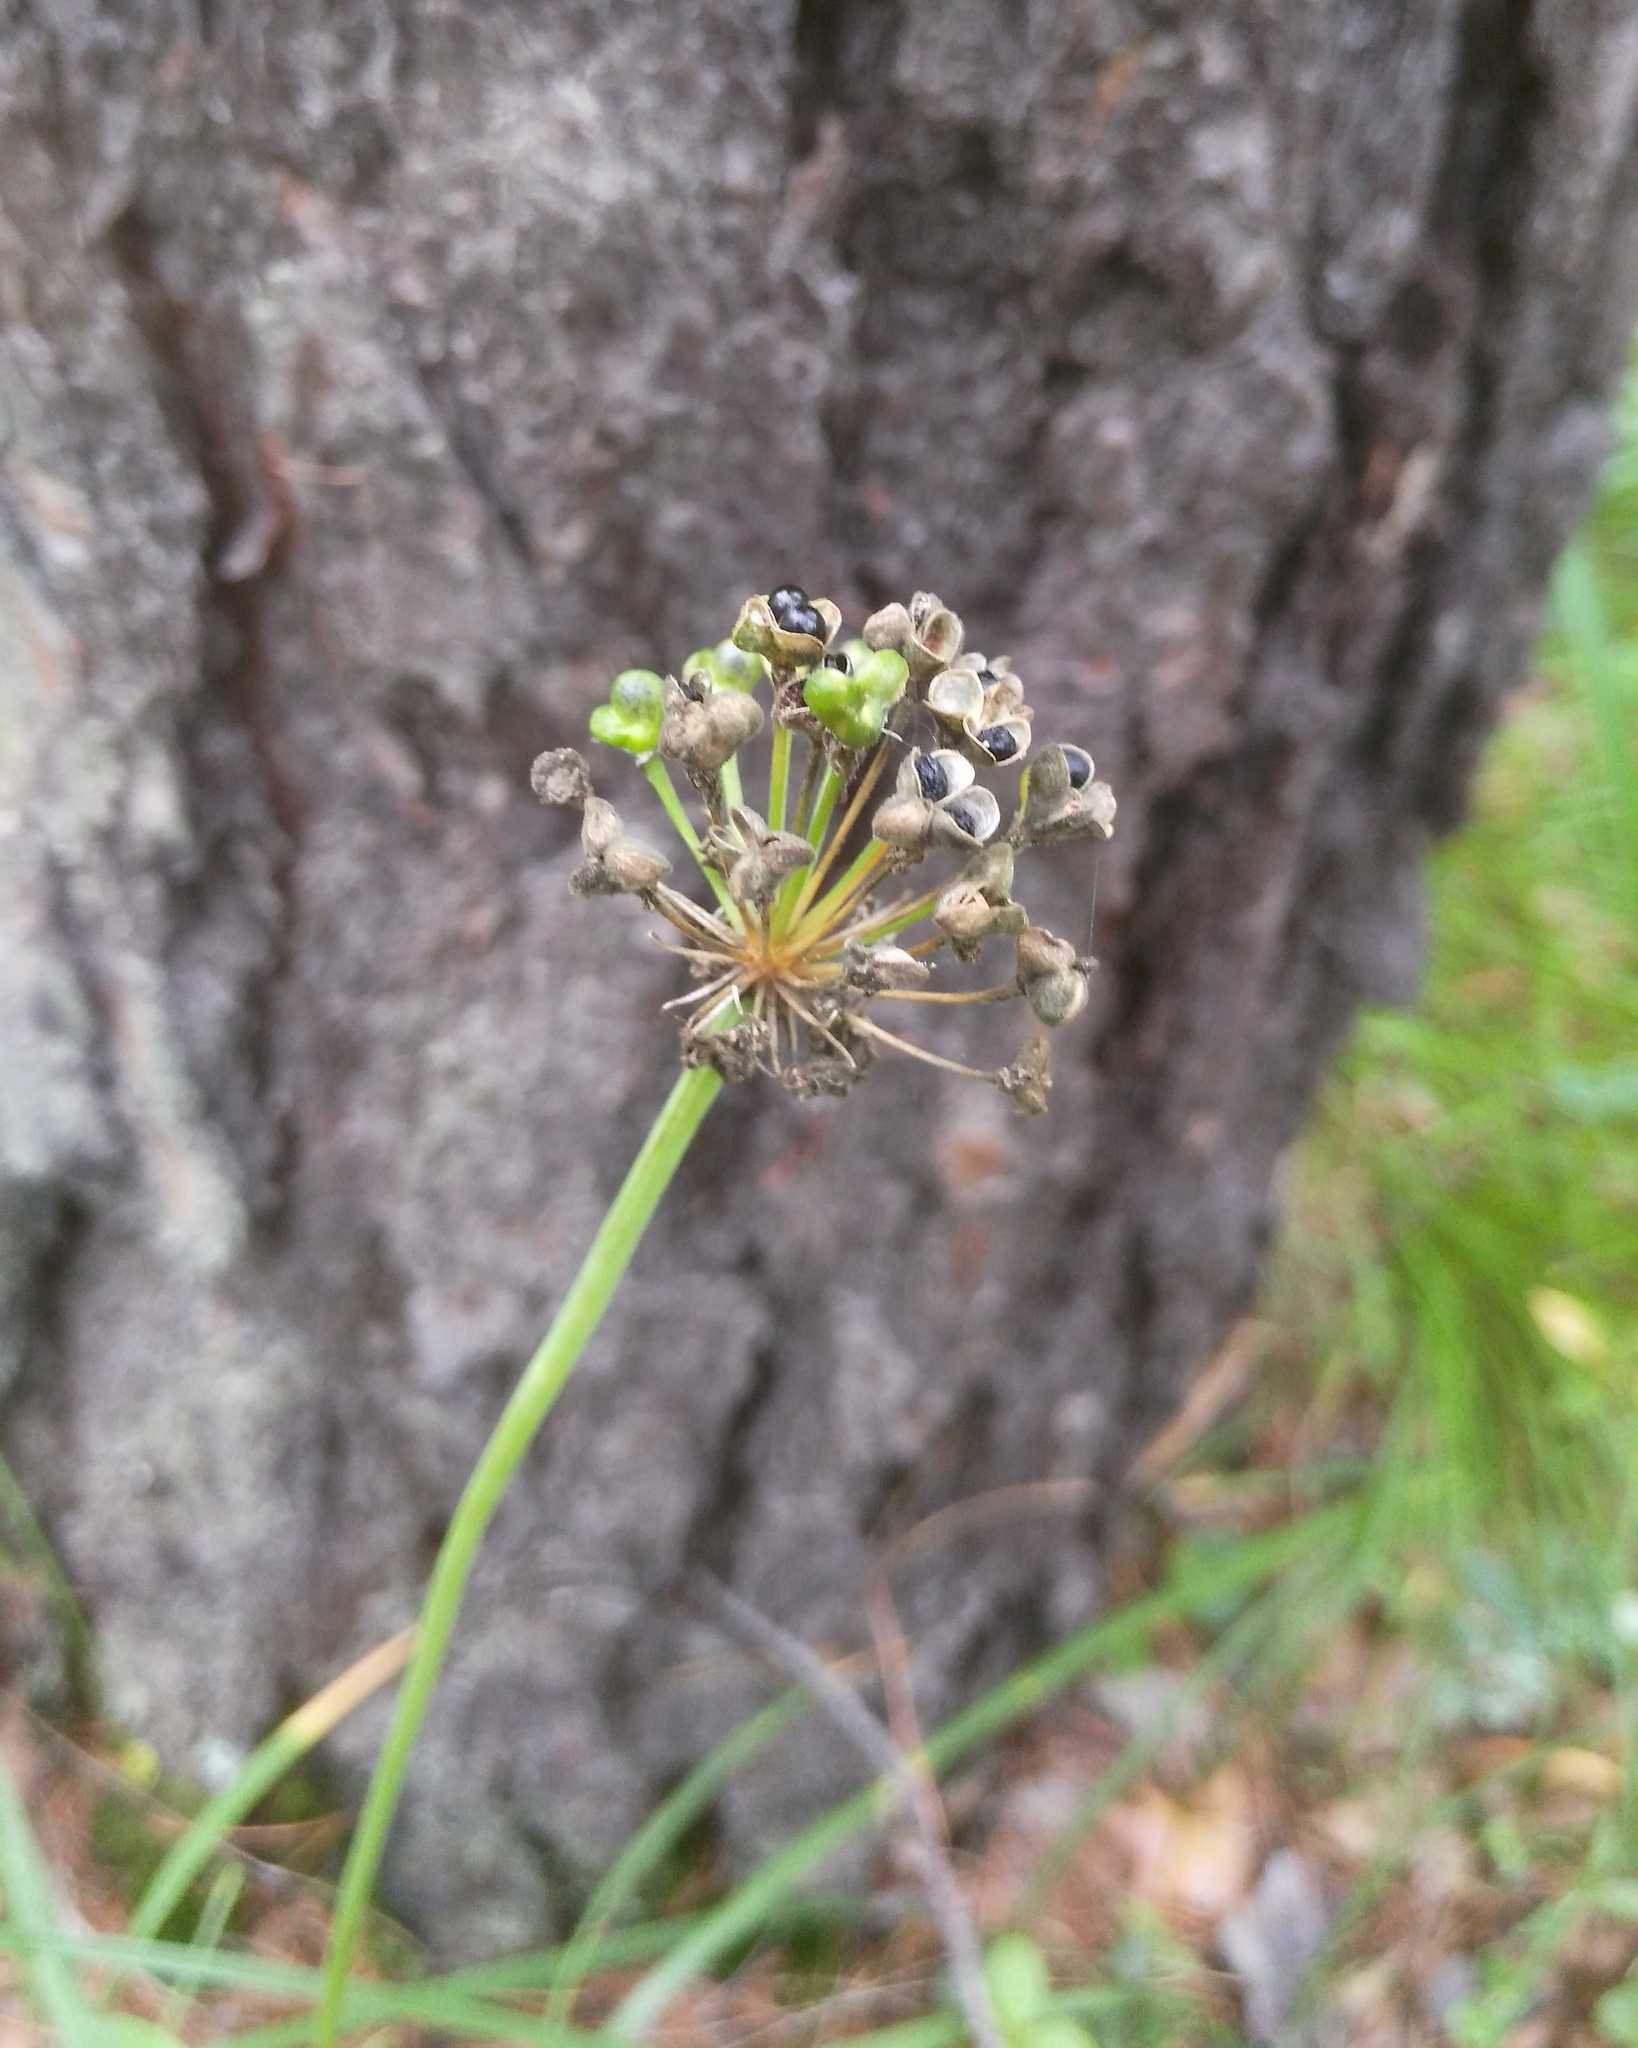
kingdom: Plantae
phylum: Tracheophyta
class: Liliopsida
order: Asparagales
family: Amaryllidaceae
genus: Allium
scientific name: Allium microdictyon
